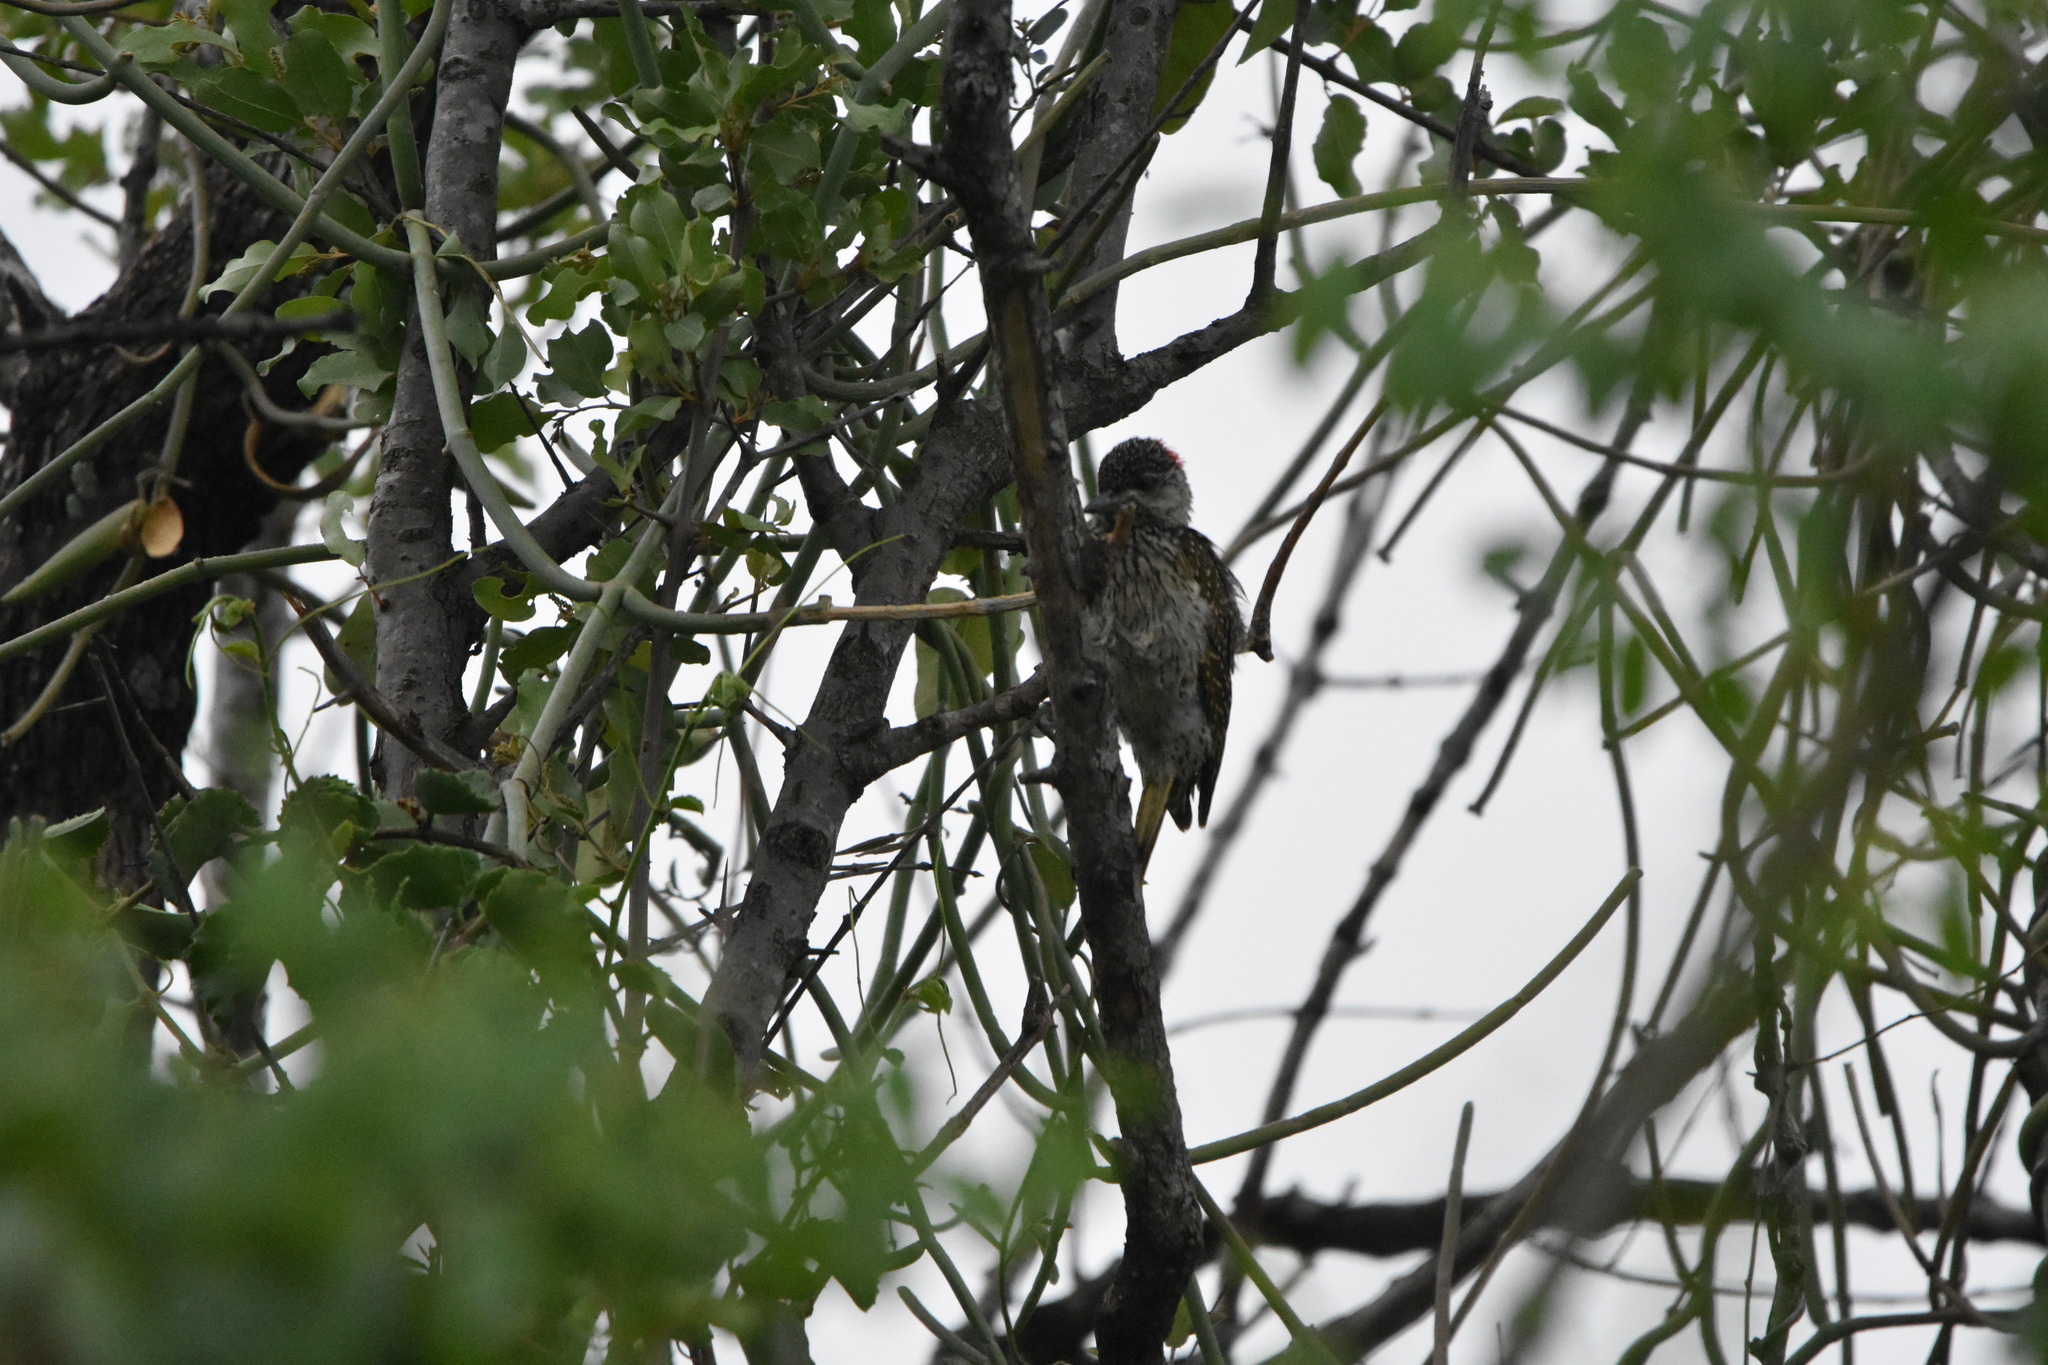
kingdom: Animalia
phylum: Chordata
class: Aves
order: Piciformes
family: Picidae
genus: Campethera
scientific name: Campethera abingoni
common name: Golden-tailed woodpecker
